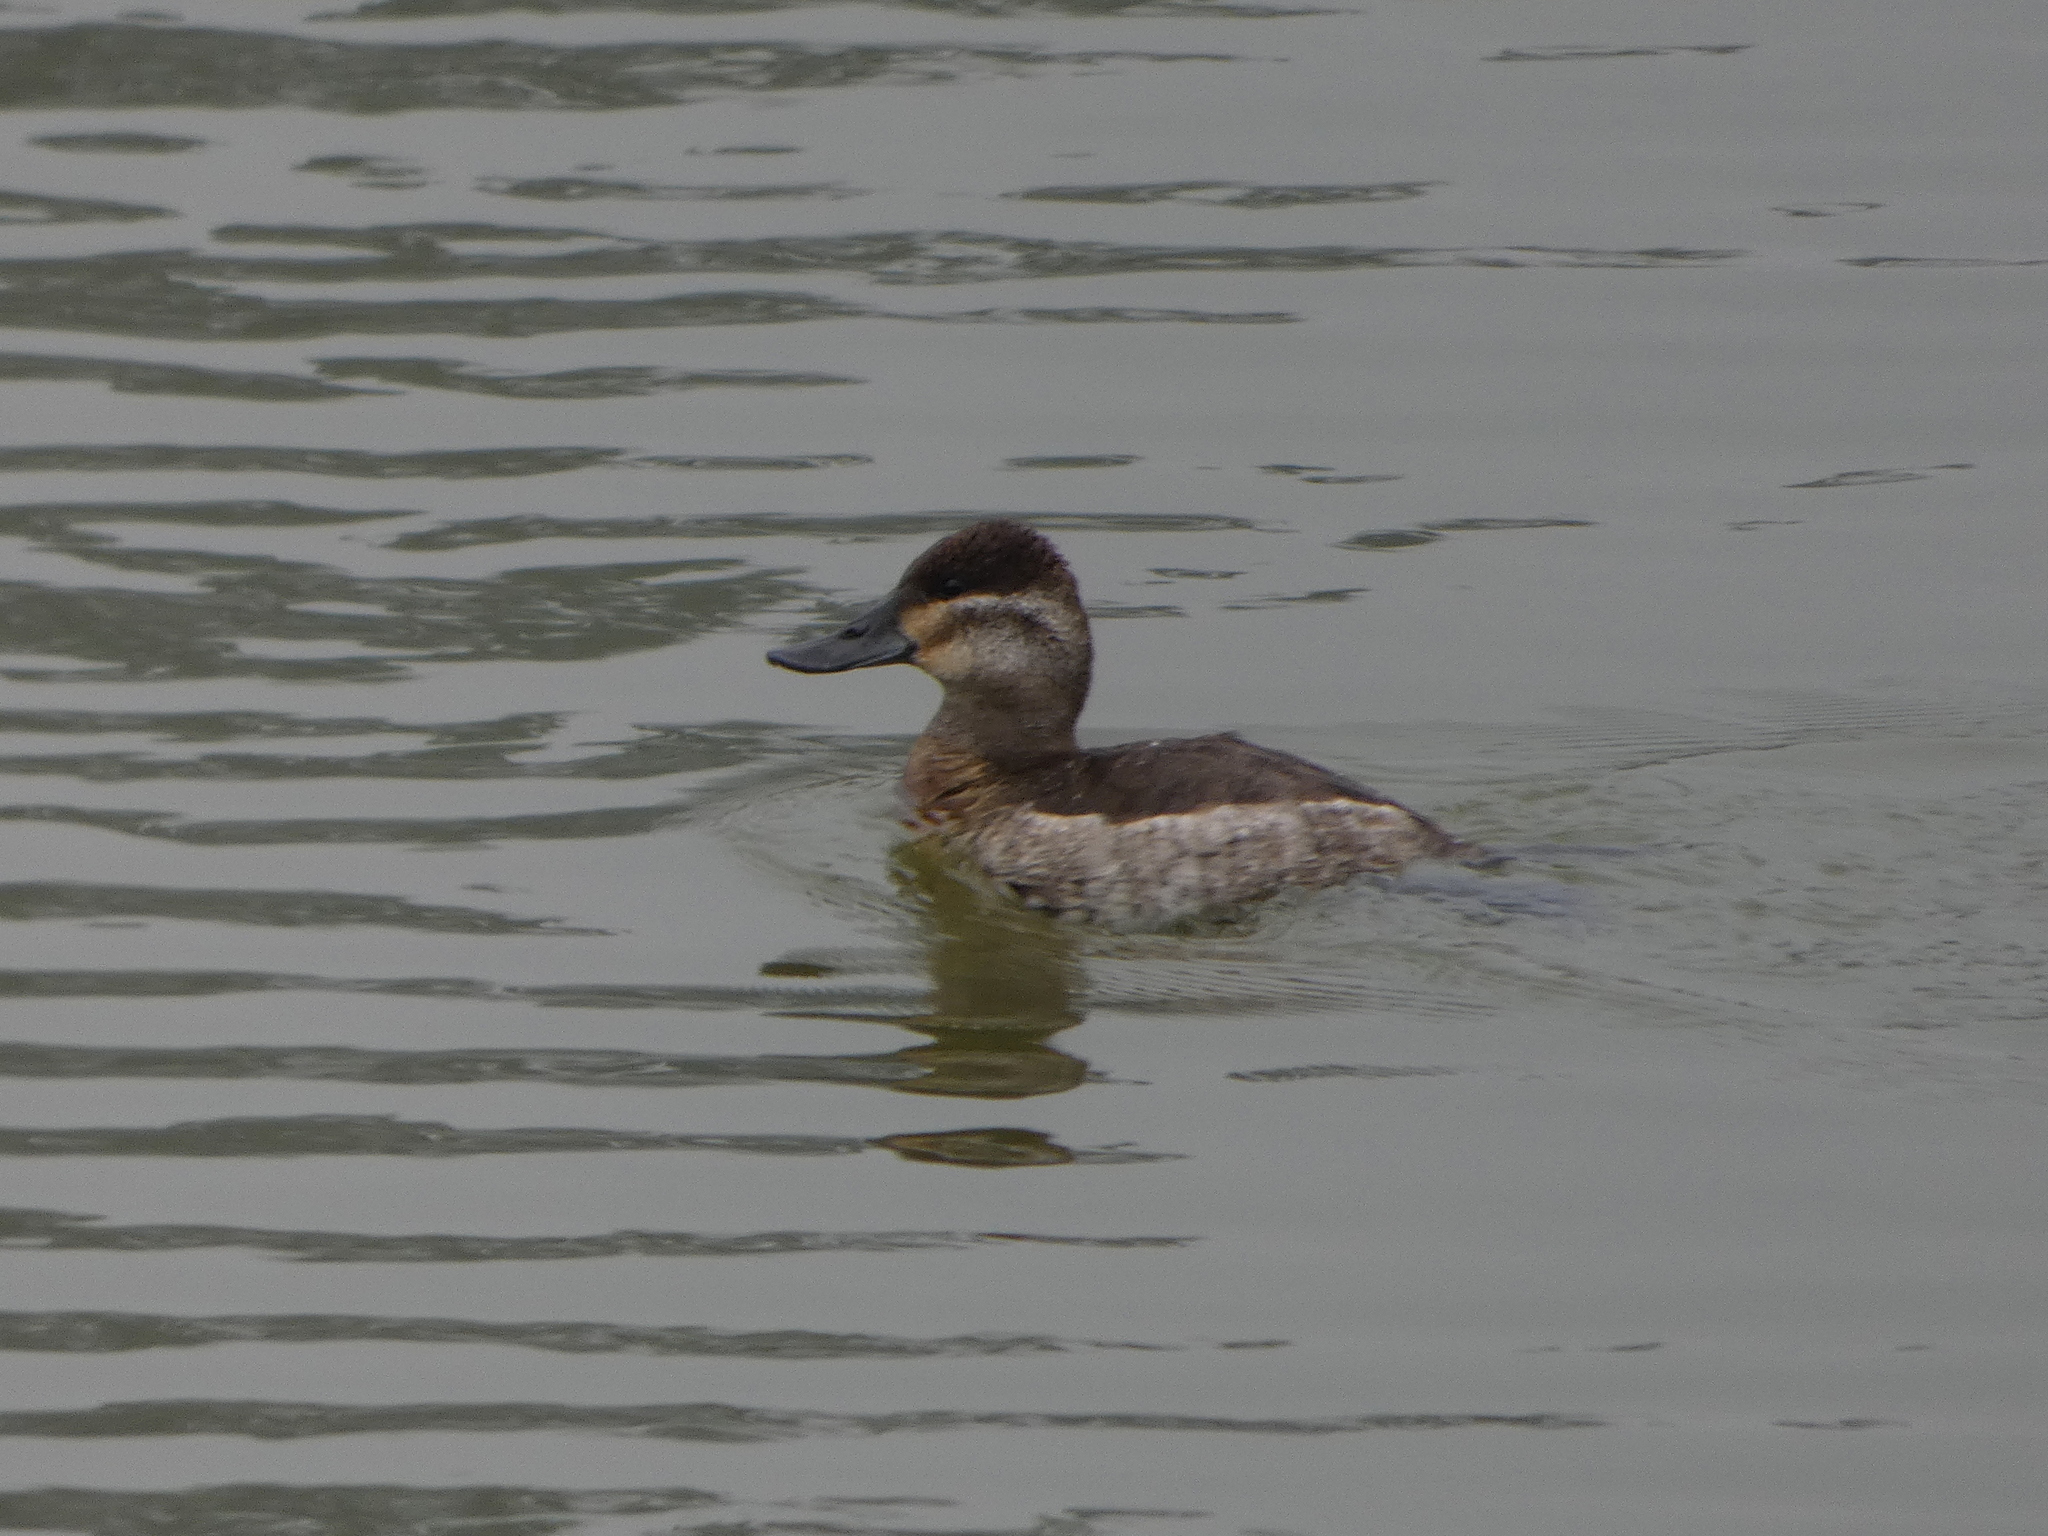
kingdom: Animalia
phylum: Chordata
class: Aves
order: Anseriformes
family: Anatidae
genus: Oxyura
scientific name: Oxyura jamaicensis
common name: Ruddy duck
